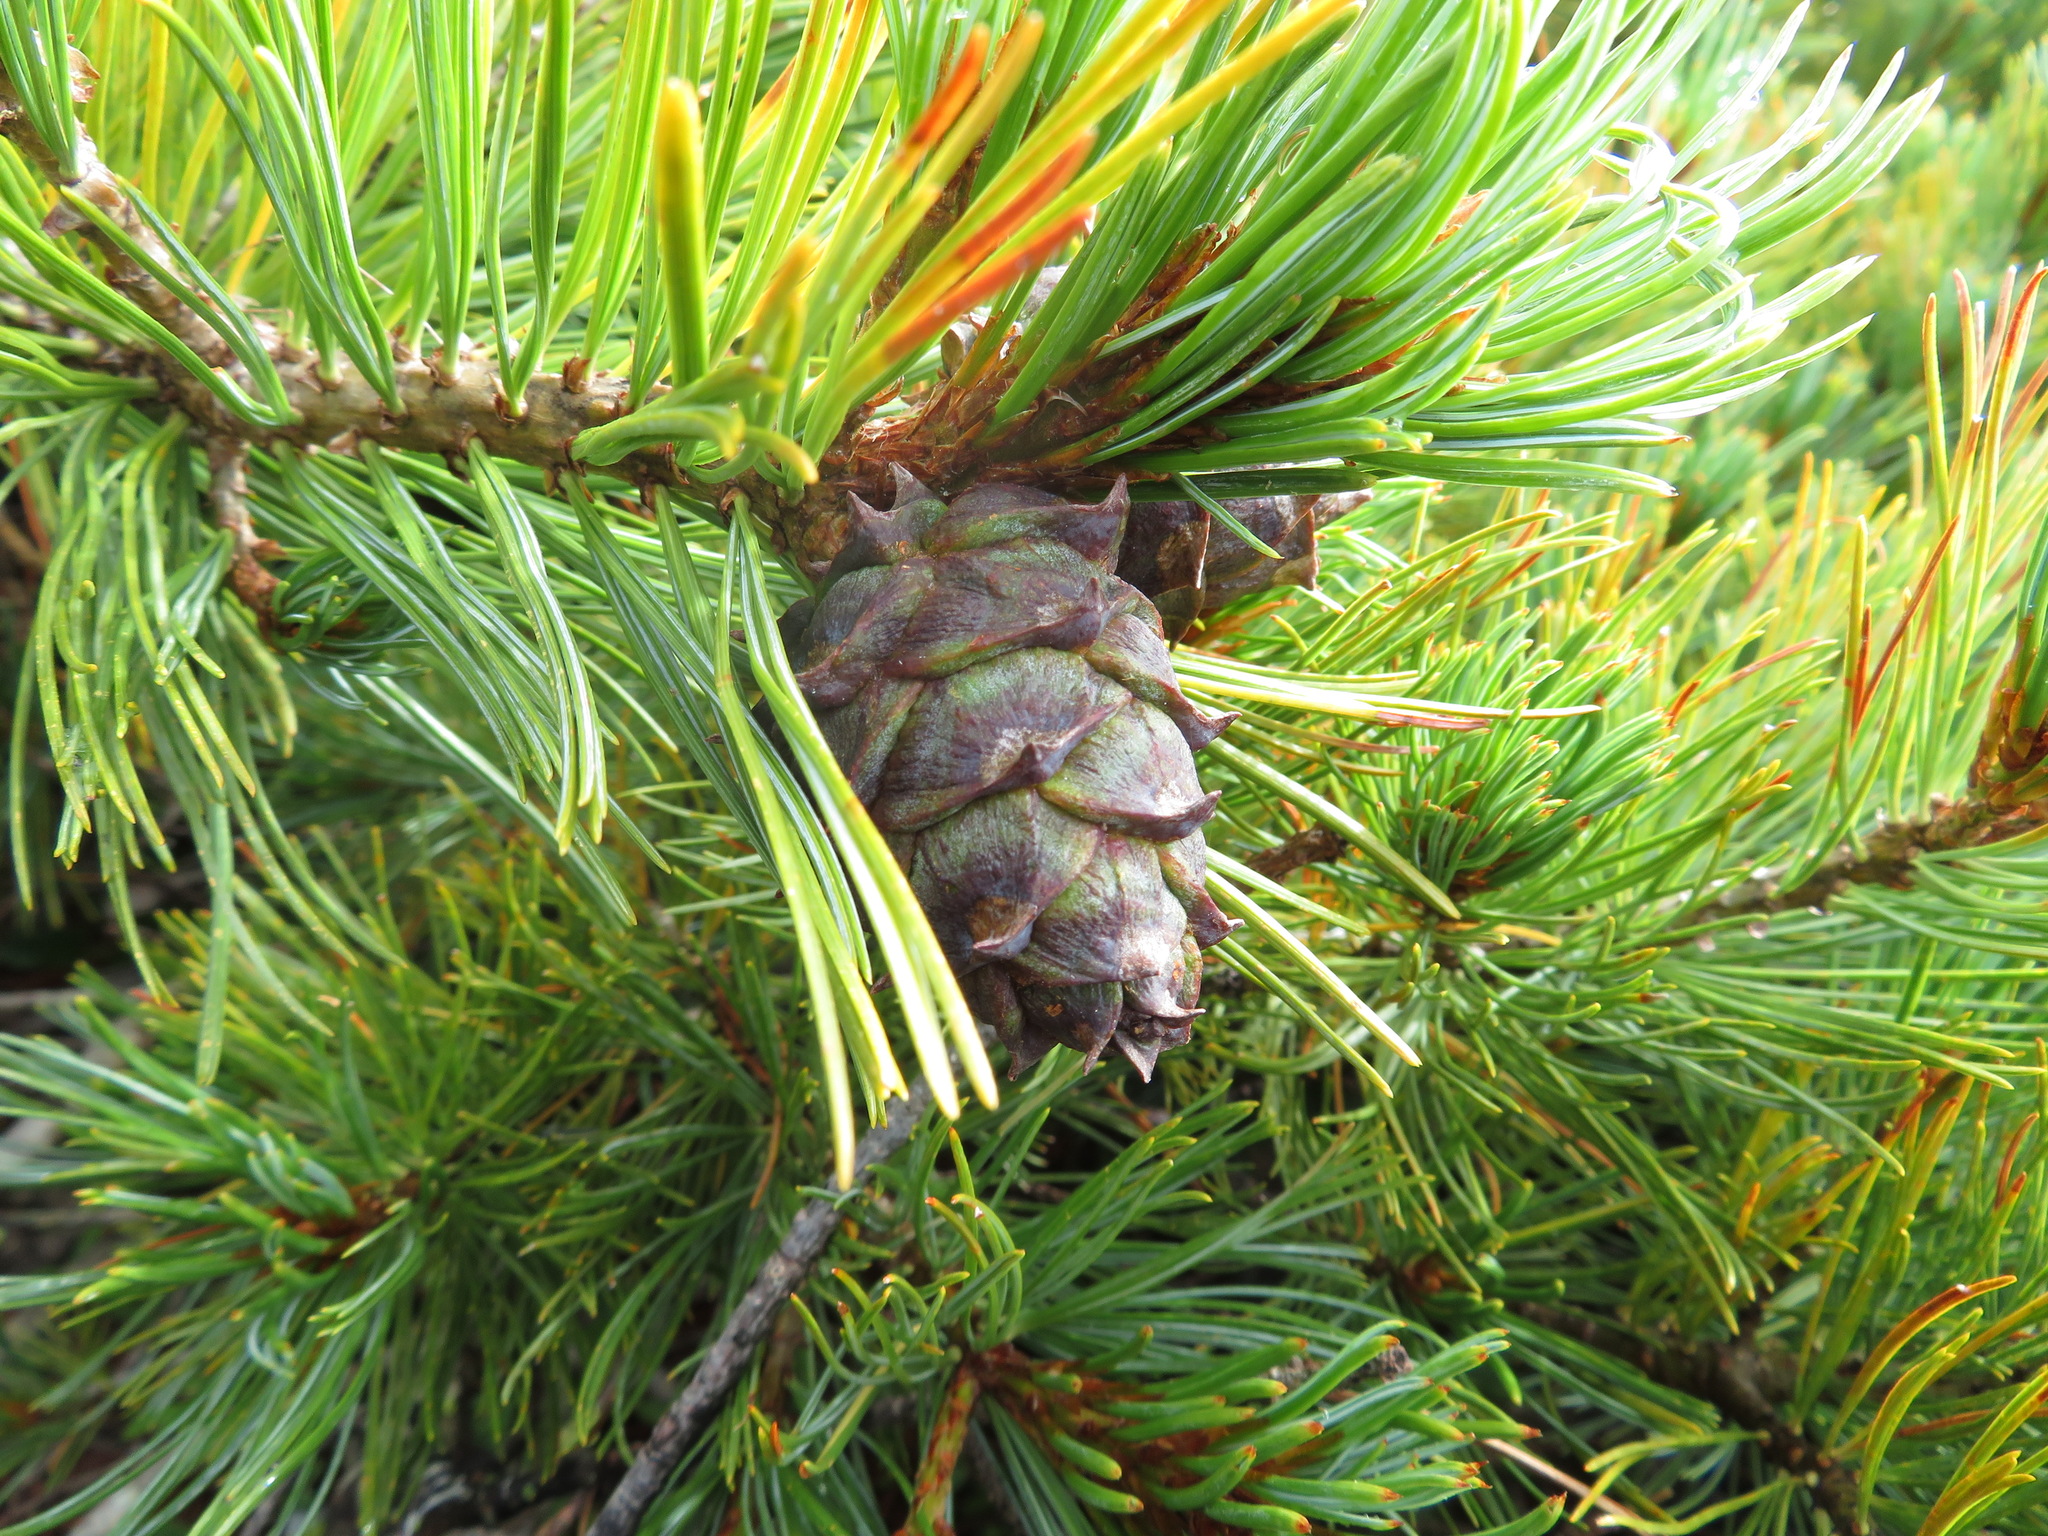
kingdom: Plantae
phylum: Tracheophyta
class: Pinopsida
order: Pinales
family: Pinaceae
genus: Pinus
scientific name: Pinus pumila
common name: Dwarf siberian pine
